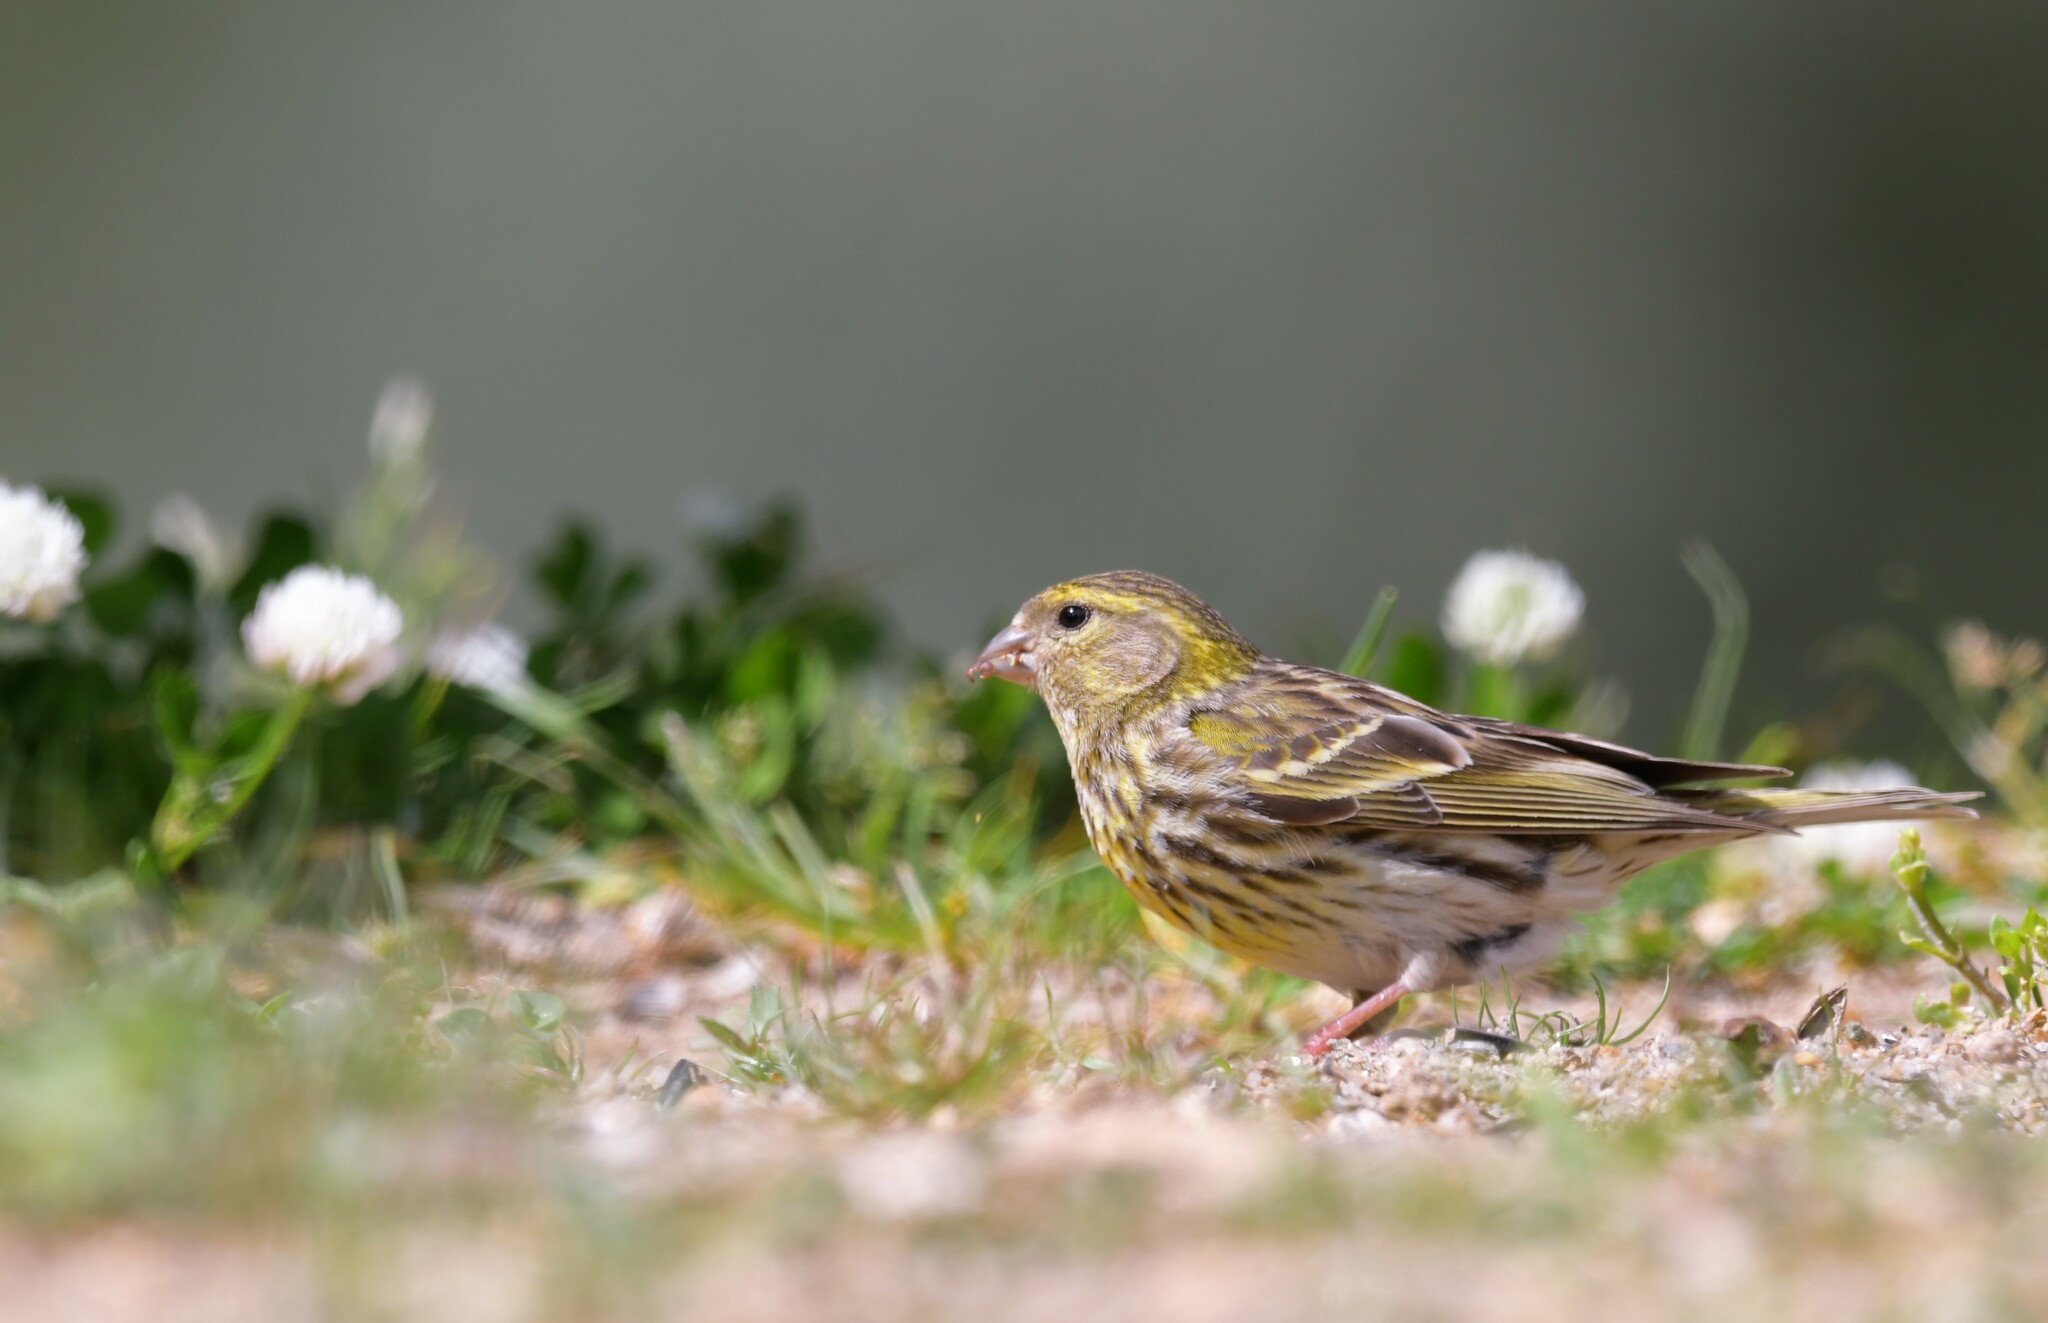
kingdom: Animalia
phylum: Chordata
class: Aves
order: Passeriformes
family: Fringillidae
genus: Serinus
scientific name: Serinus serinus
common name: European serin
